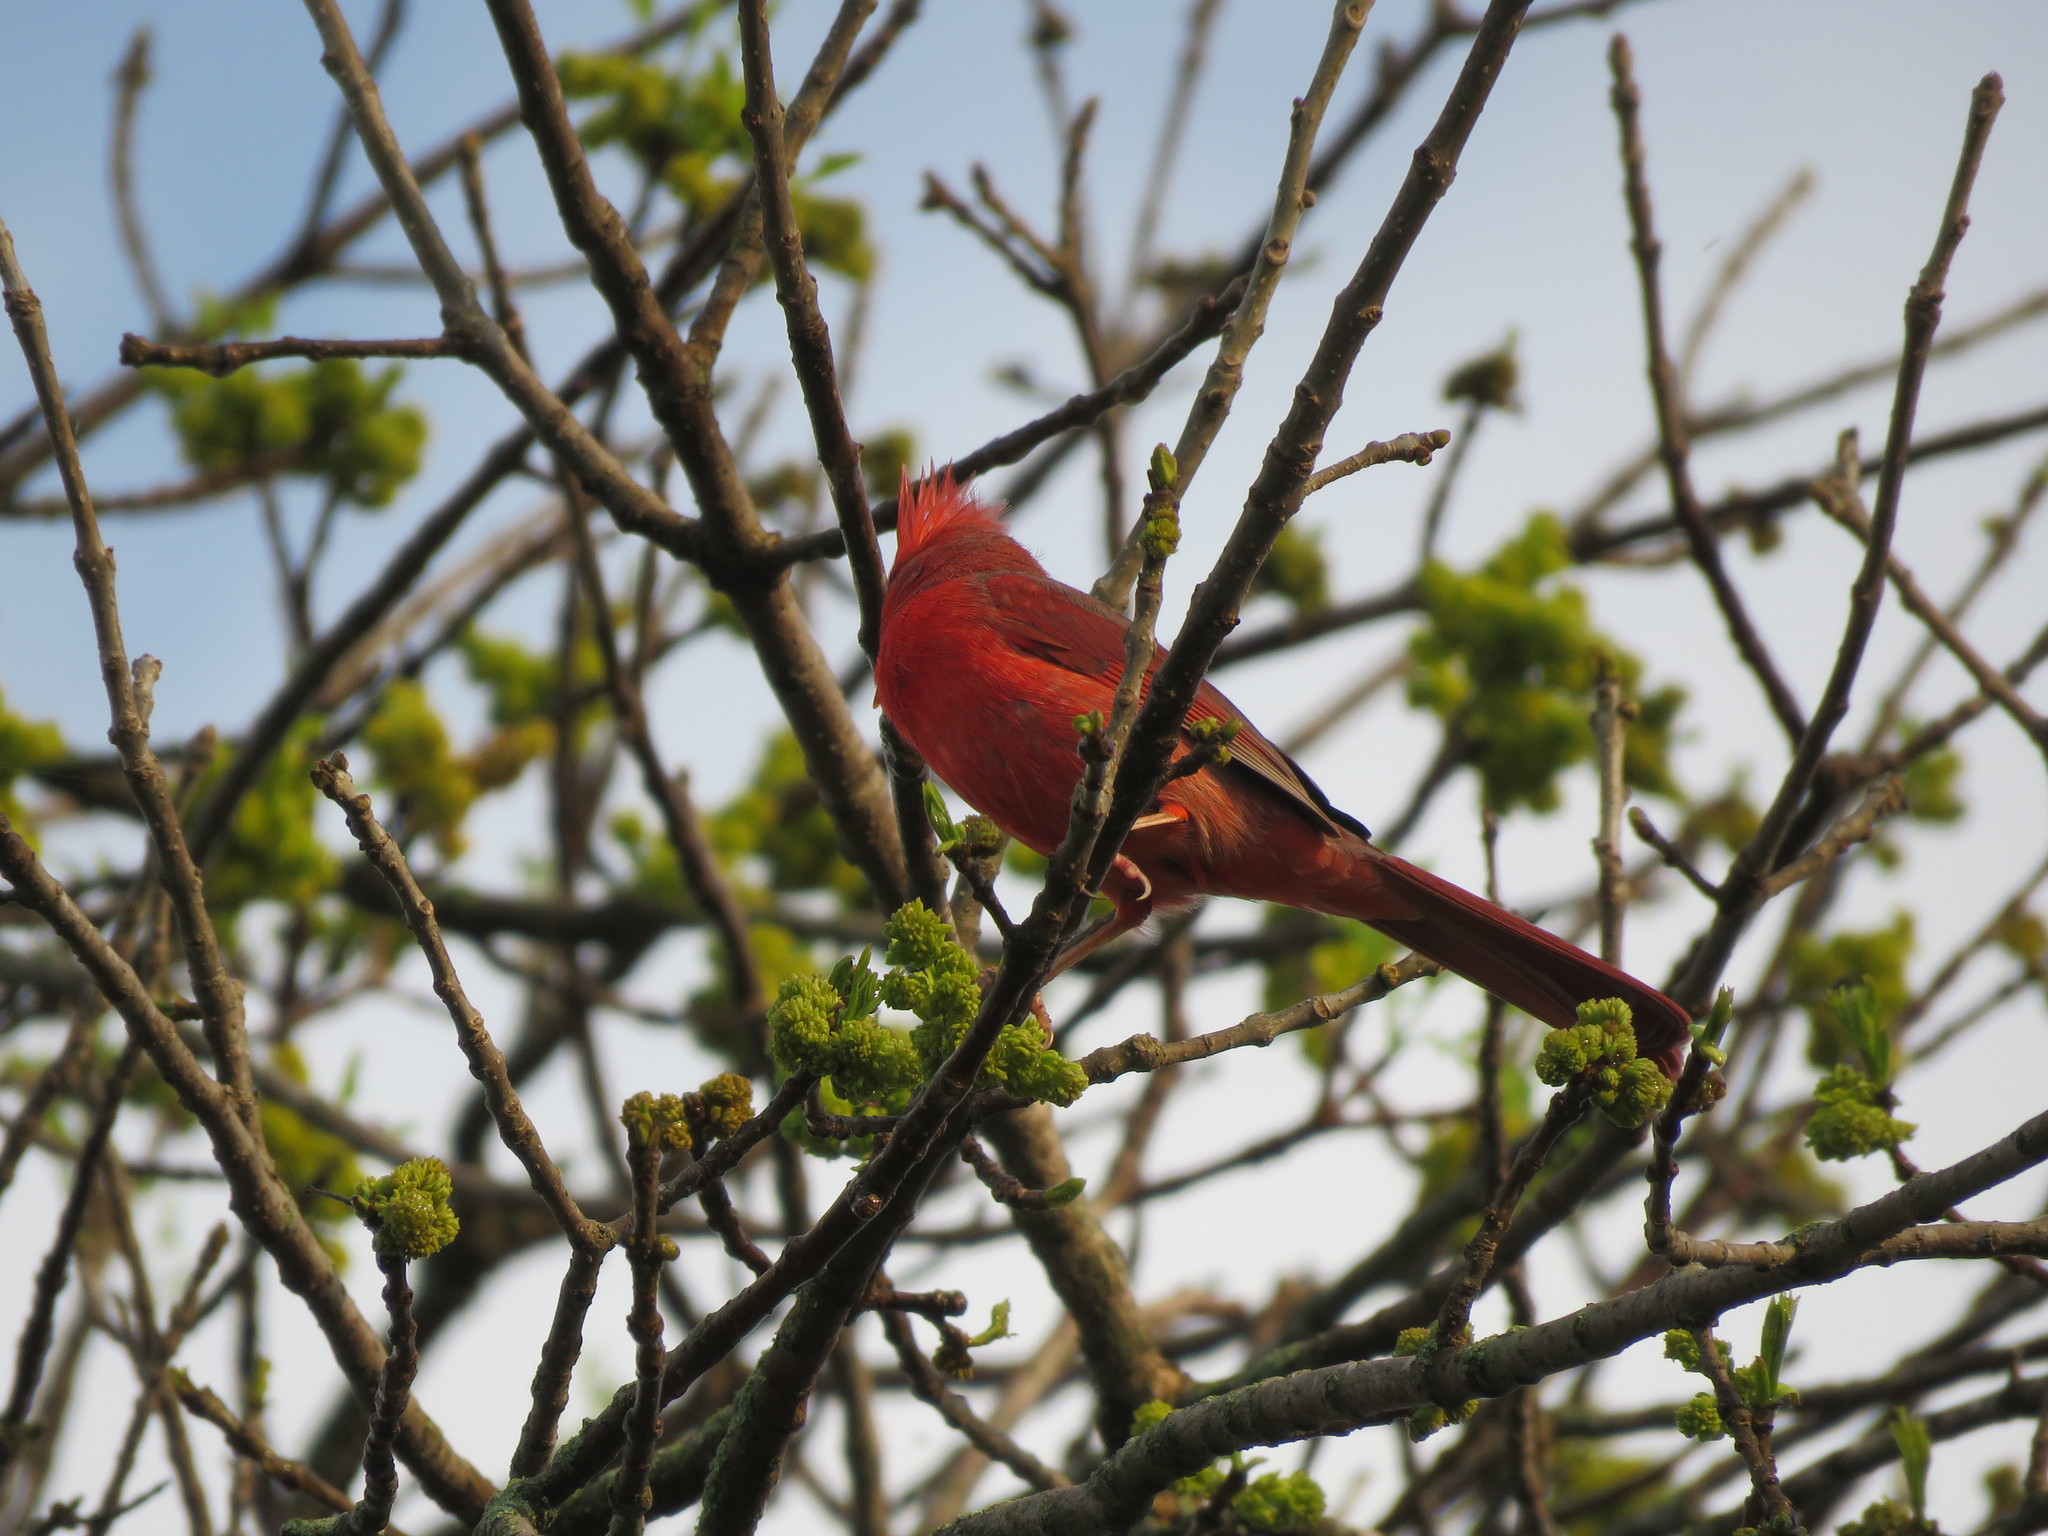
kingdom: Animalia
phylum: Chordata
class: Aves
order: Passeriformes
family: Cardinalidae
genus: Cardinalis
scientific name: Cardinalis cardinalis
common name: Northern cardinal
